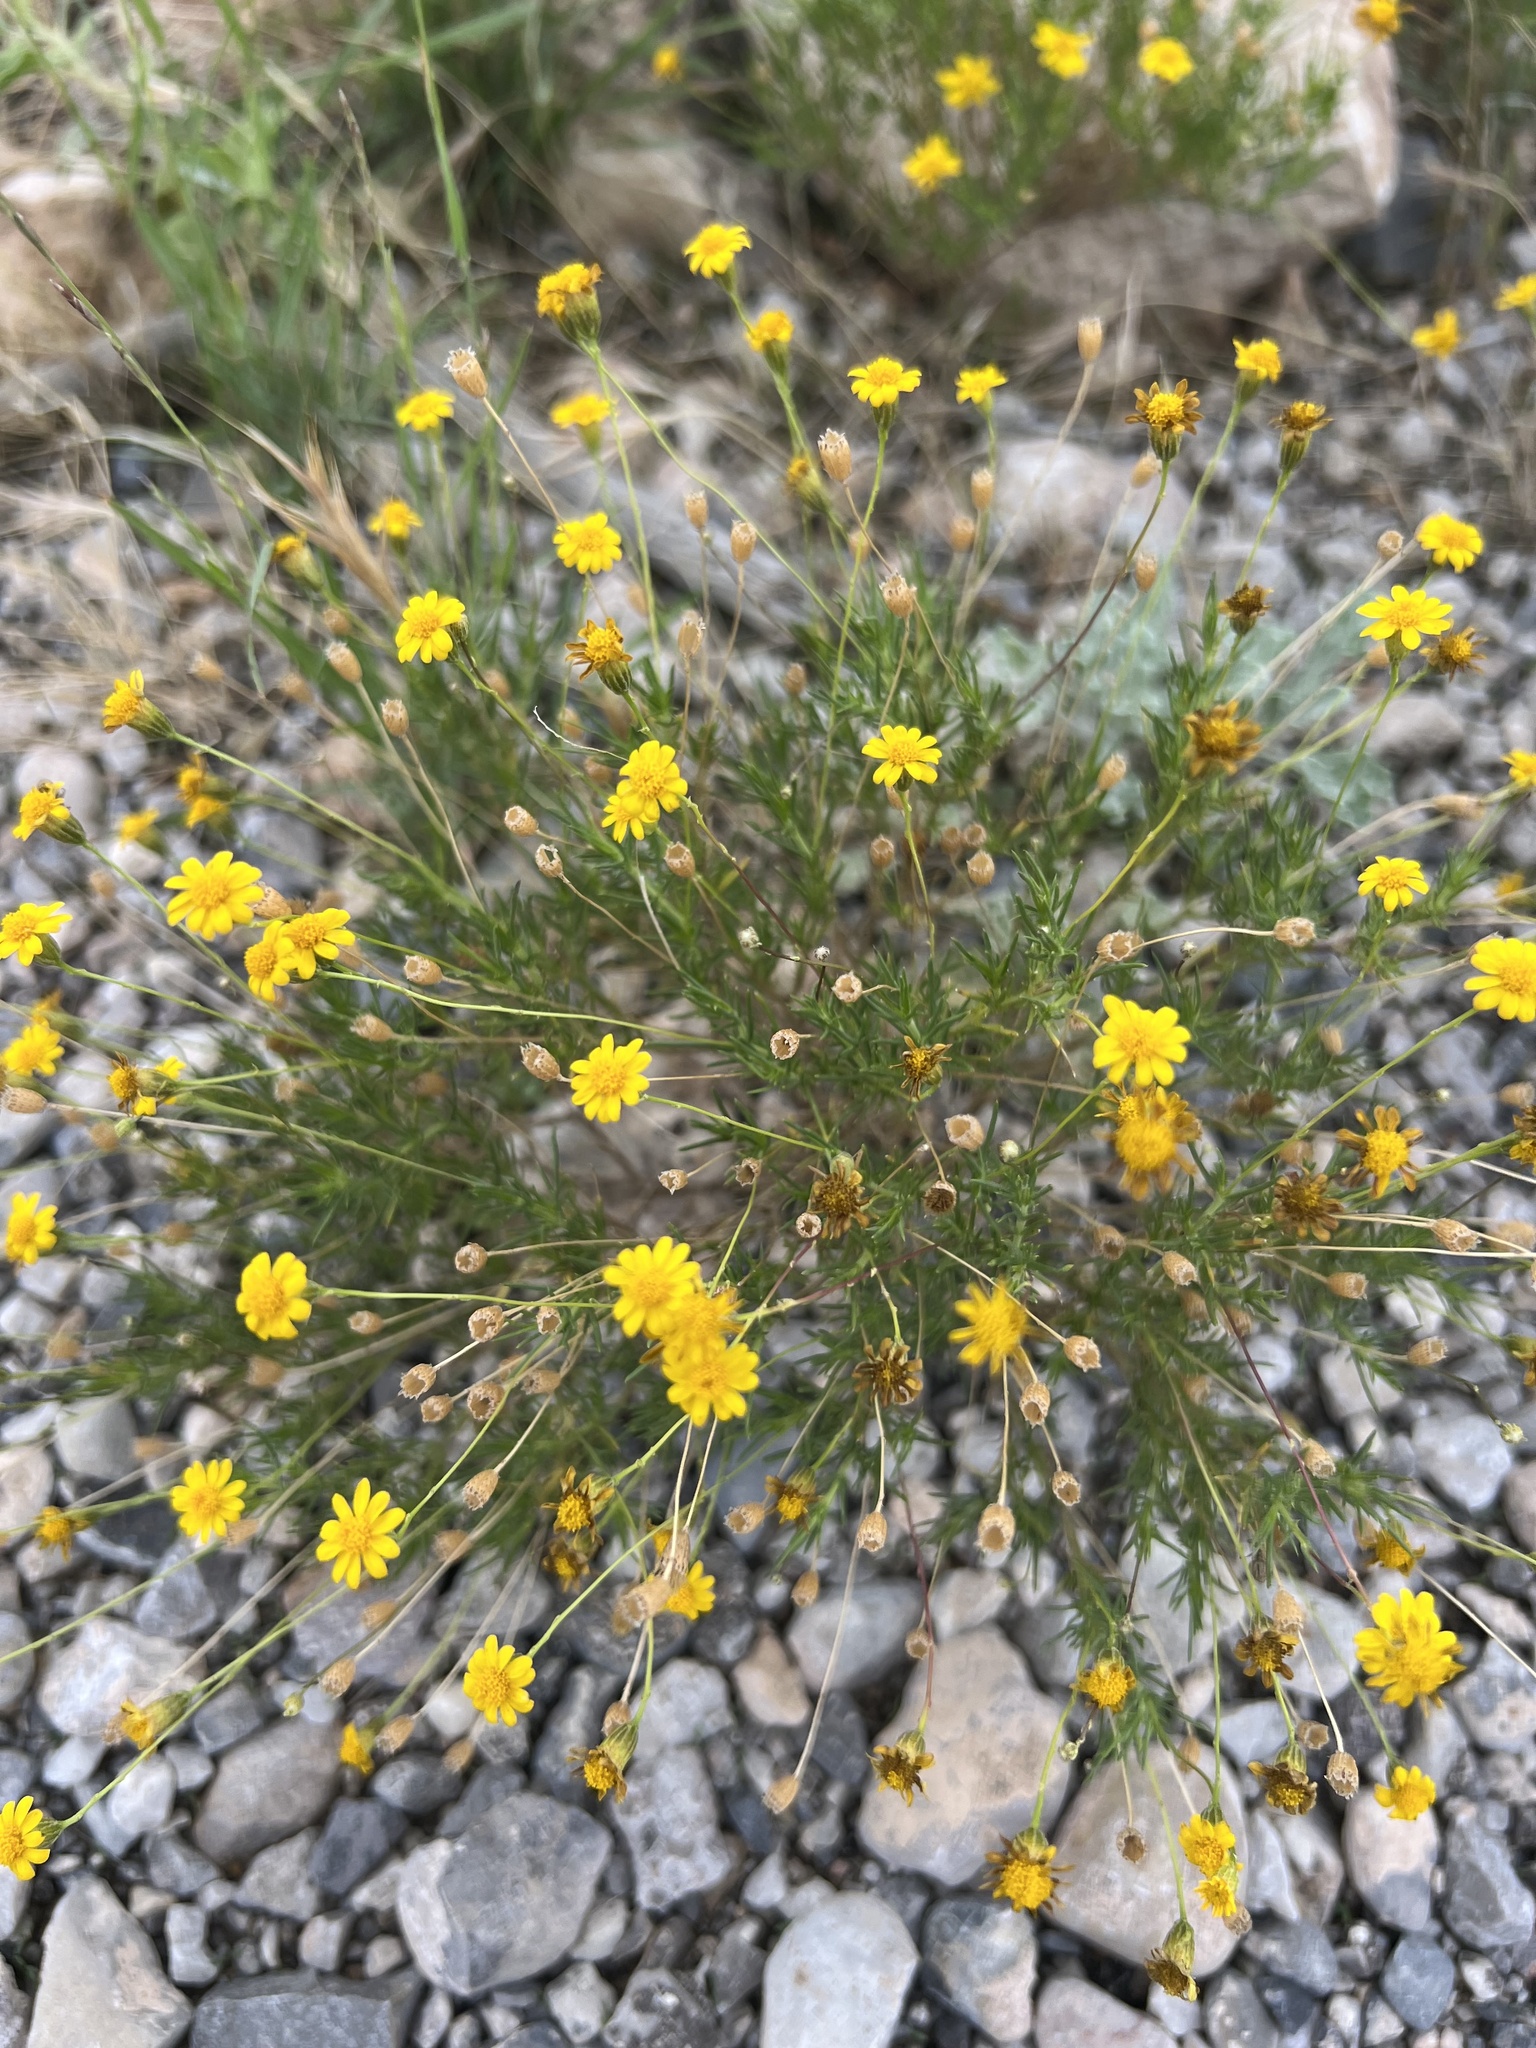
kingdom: Plantae
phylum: Tracheophyta
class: Magnoliopsida
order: Asterales
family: Asteraceae
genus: Thymophylla
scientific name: Thymophylla pentachaeta
